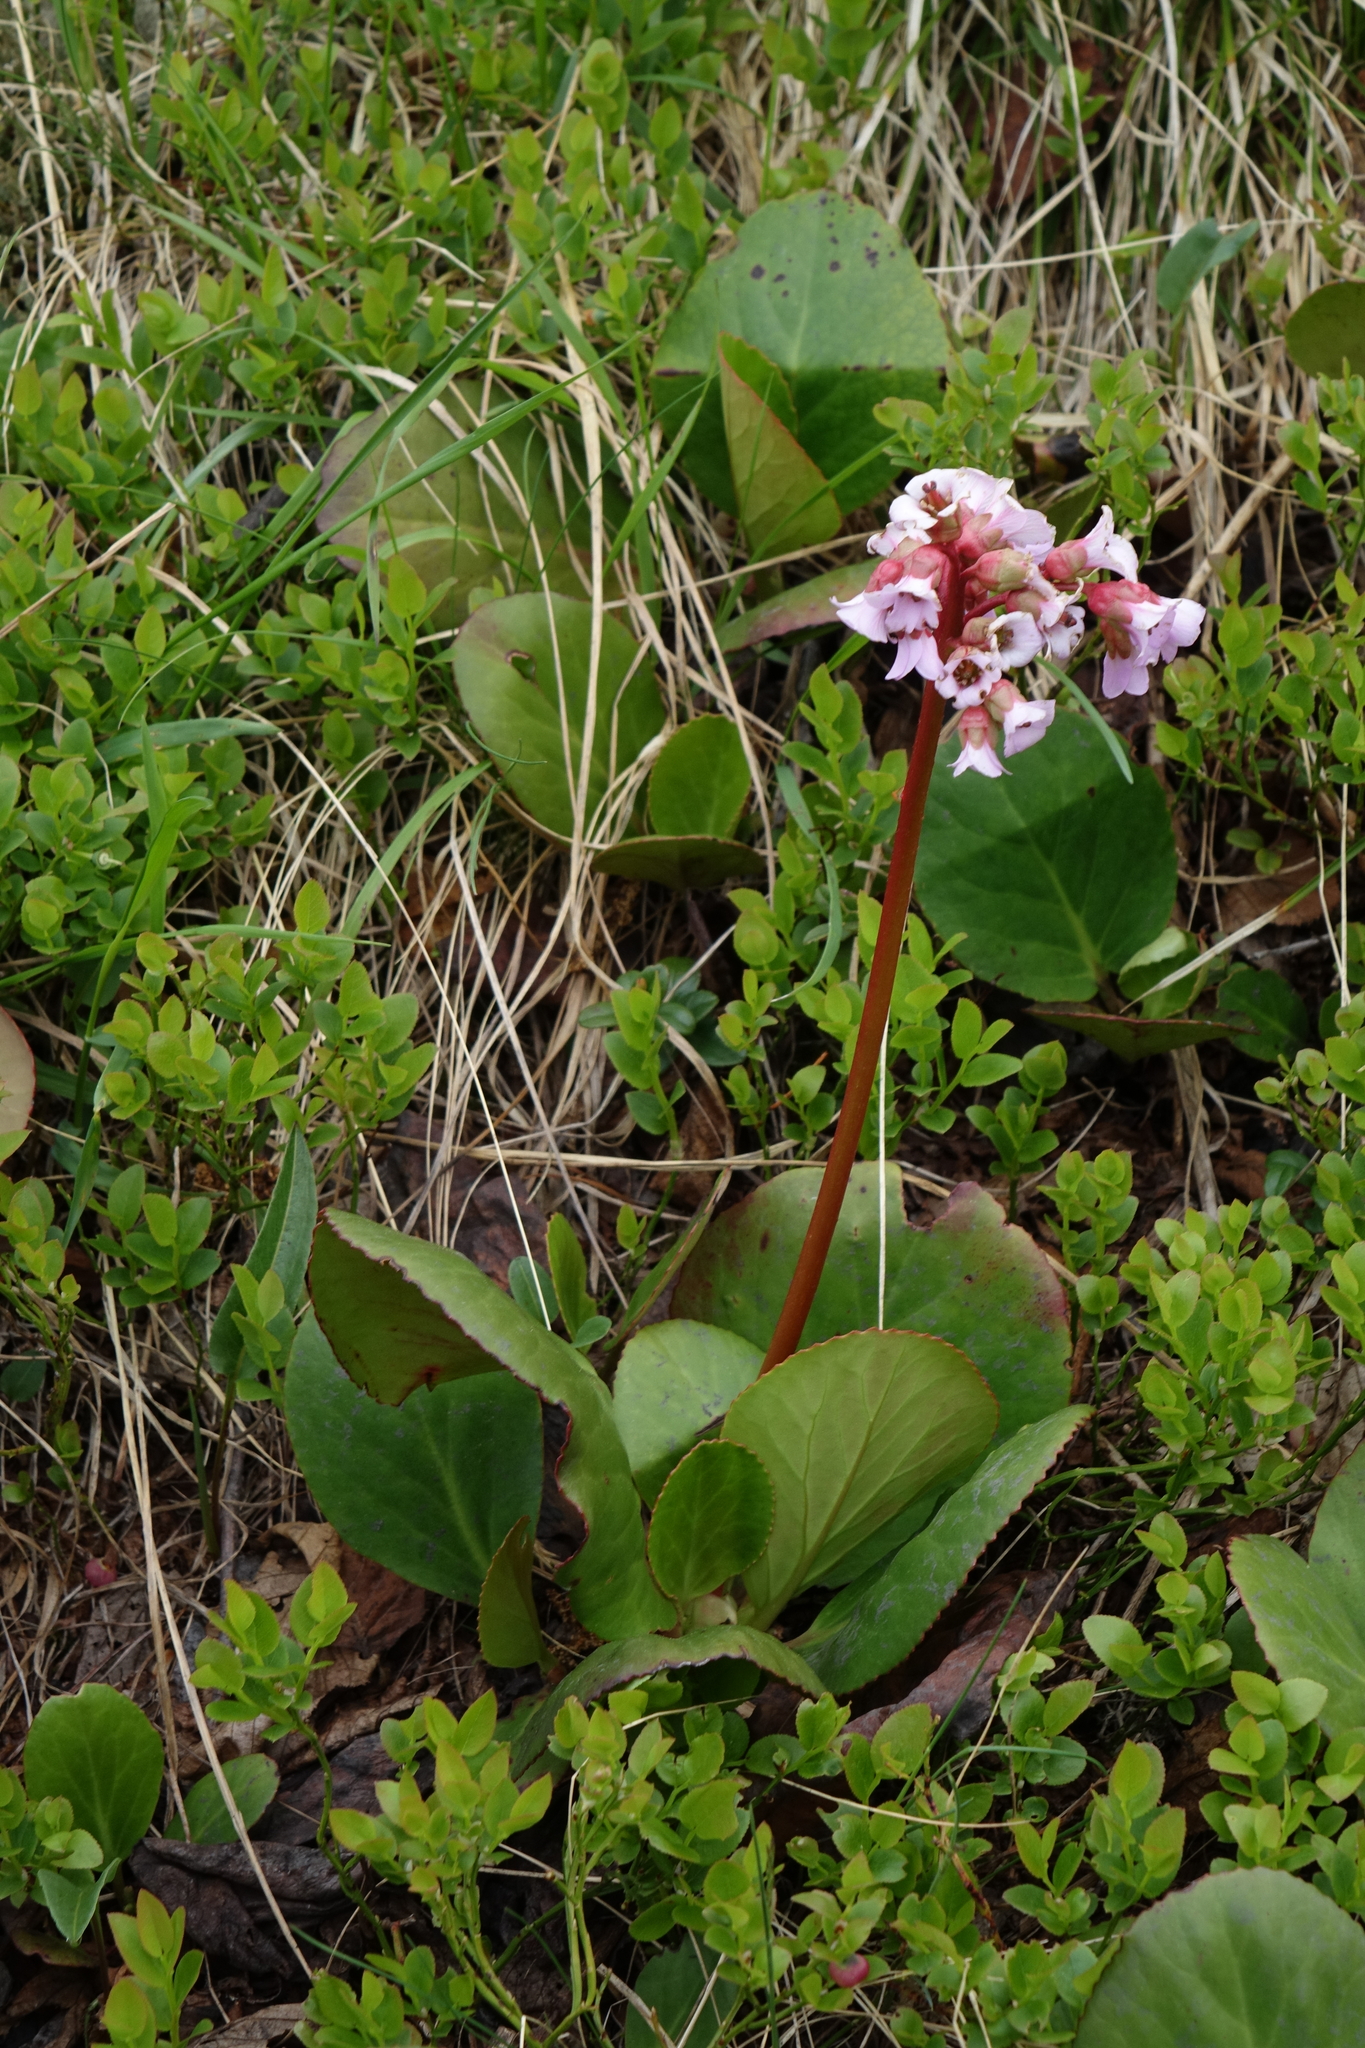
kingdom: Plantae
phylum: Tracheophyta
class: Magnoliopsida
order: Saxifragales
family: Saxifragaceae
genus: Bergenia
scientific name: Bergenia crassifolia
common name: Elephant-ears
